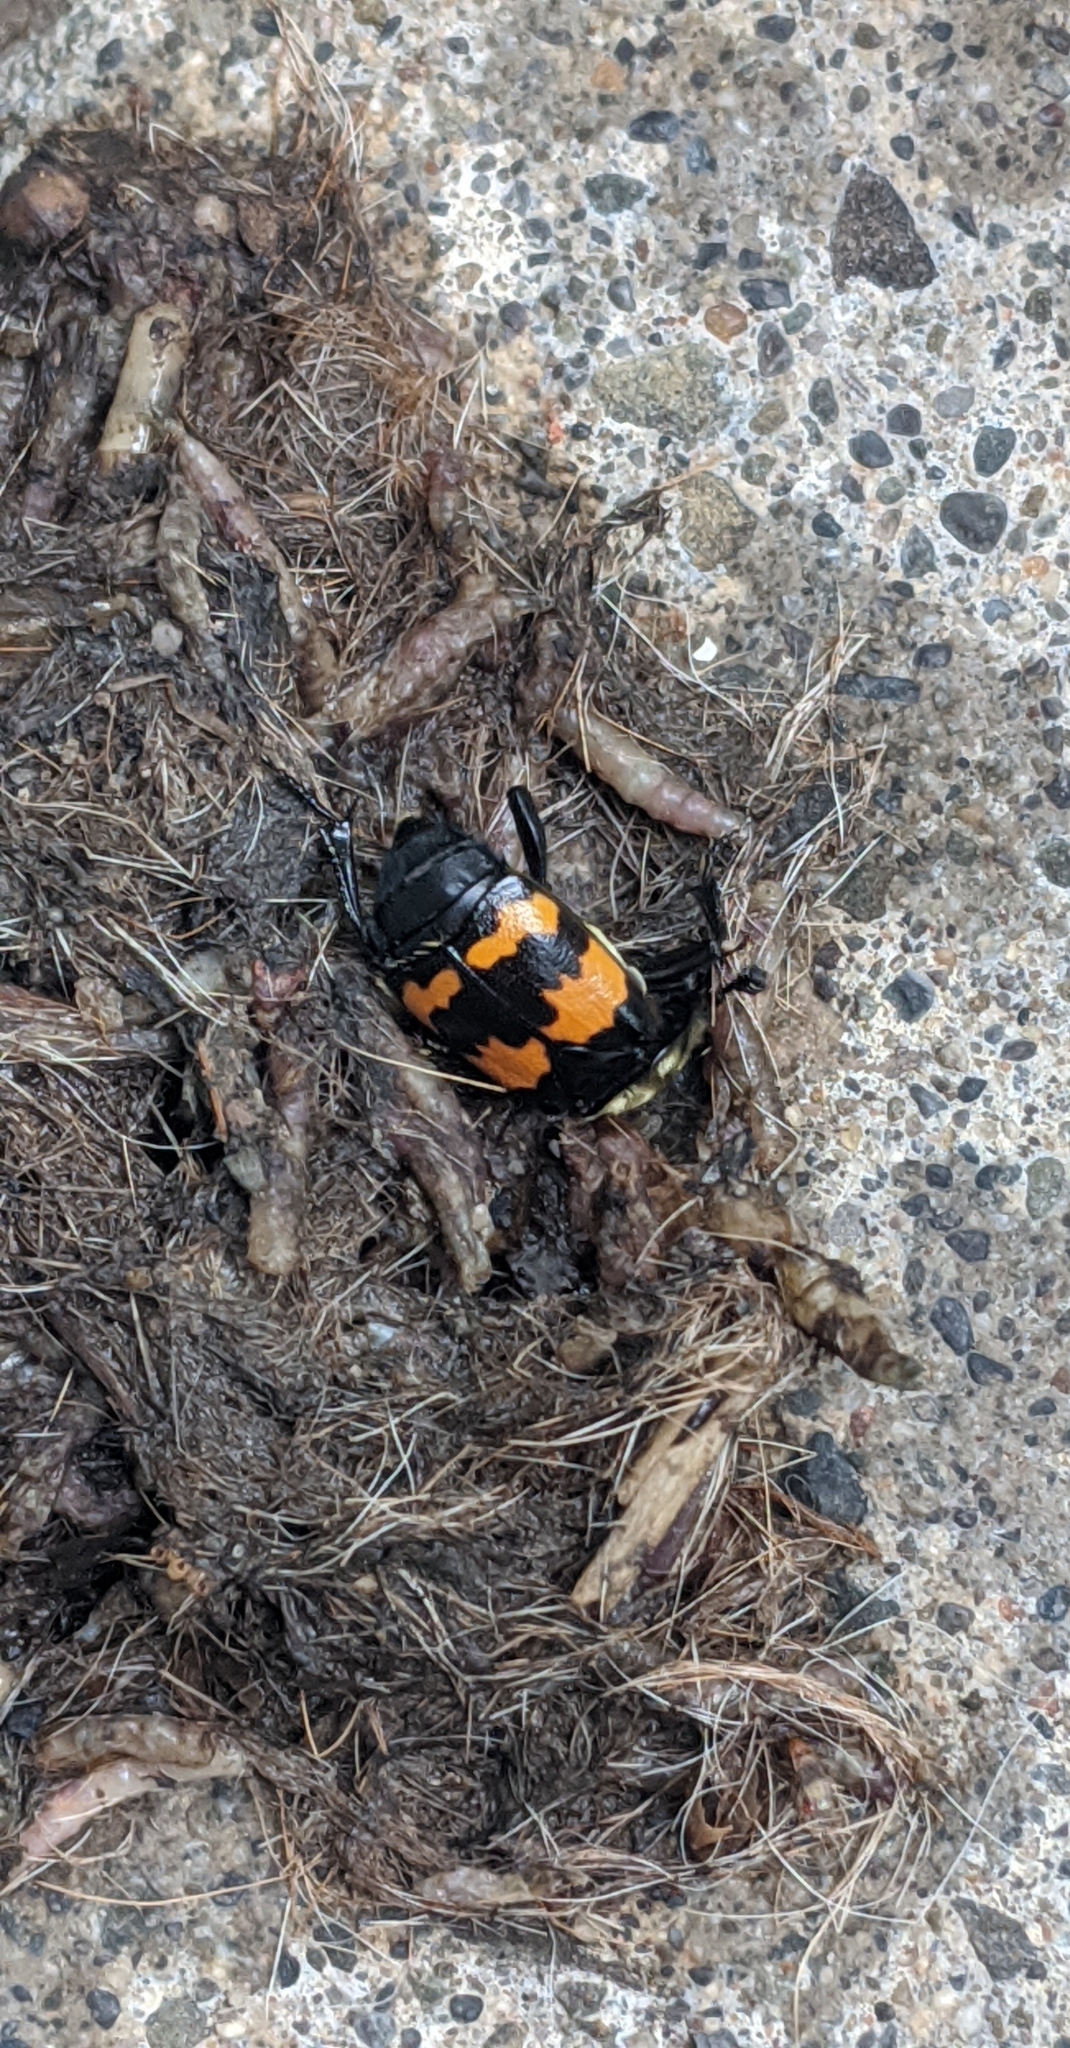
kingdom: Animalia
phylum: Arthropoda
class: Insecta
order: Coleoptera
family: Staphylinidae
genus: Nicrophorus
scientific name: Nicrophorus tomentosus
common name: Tomentose burying beetle
